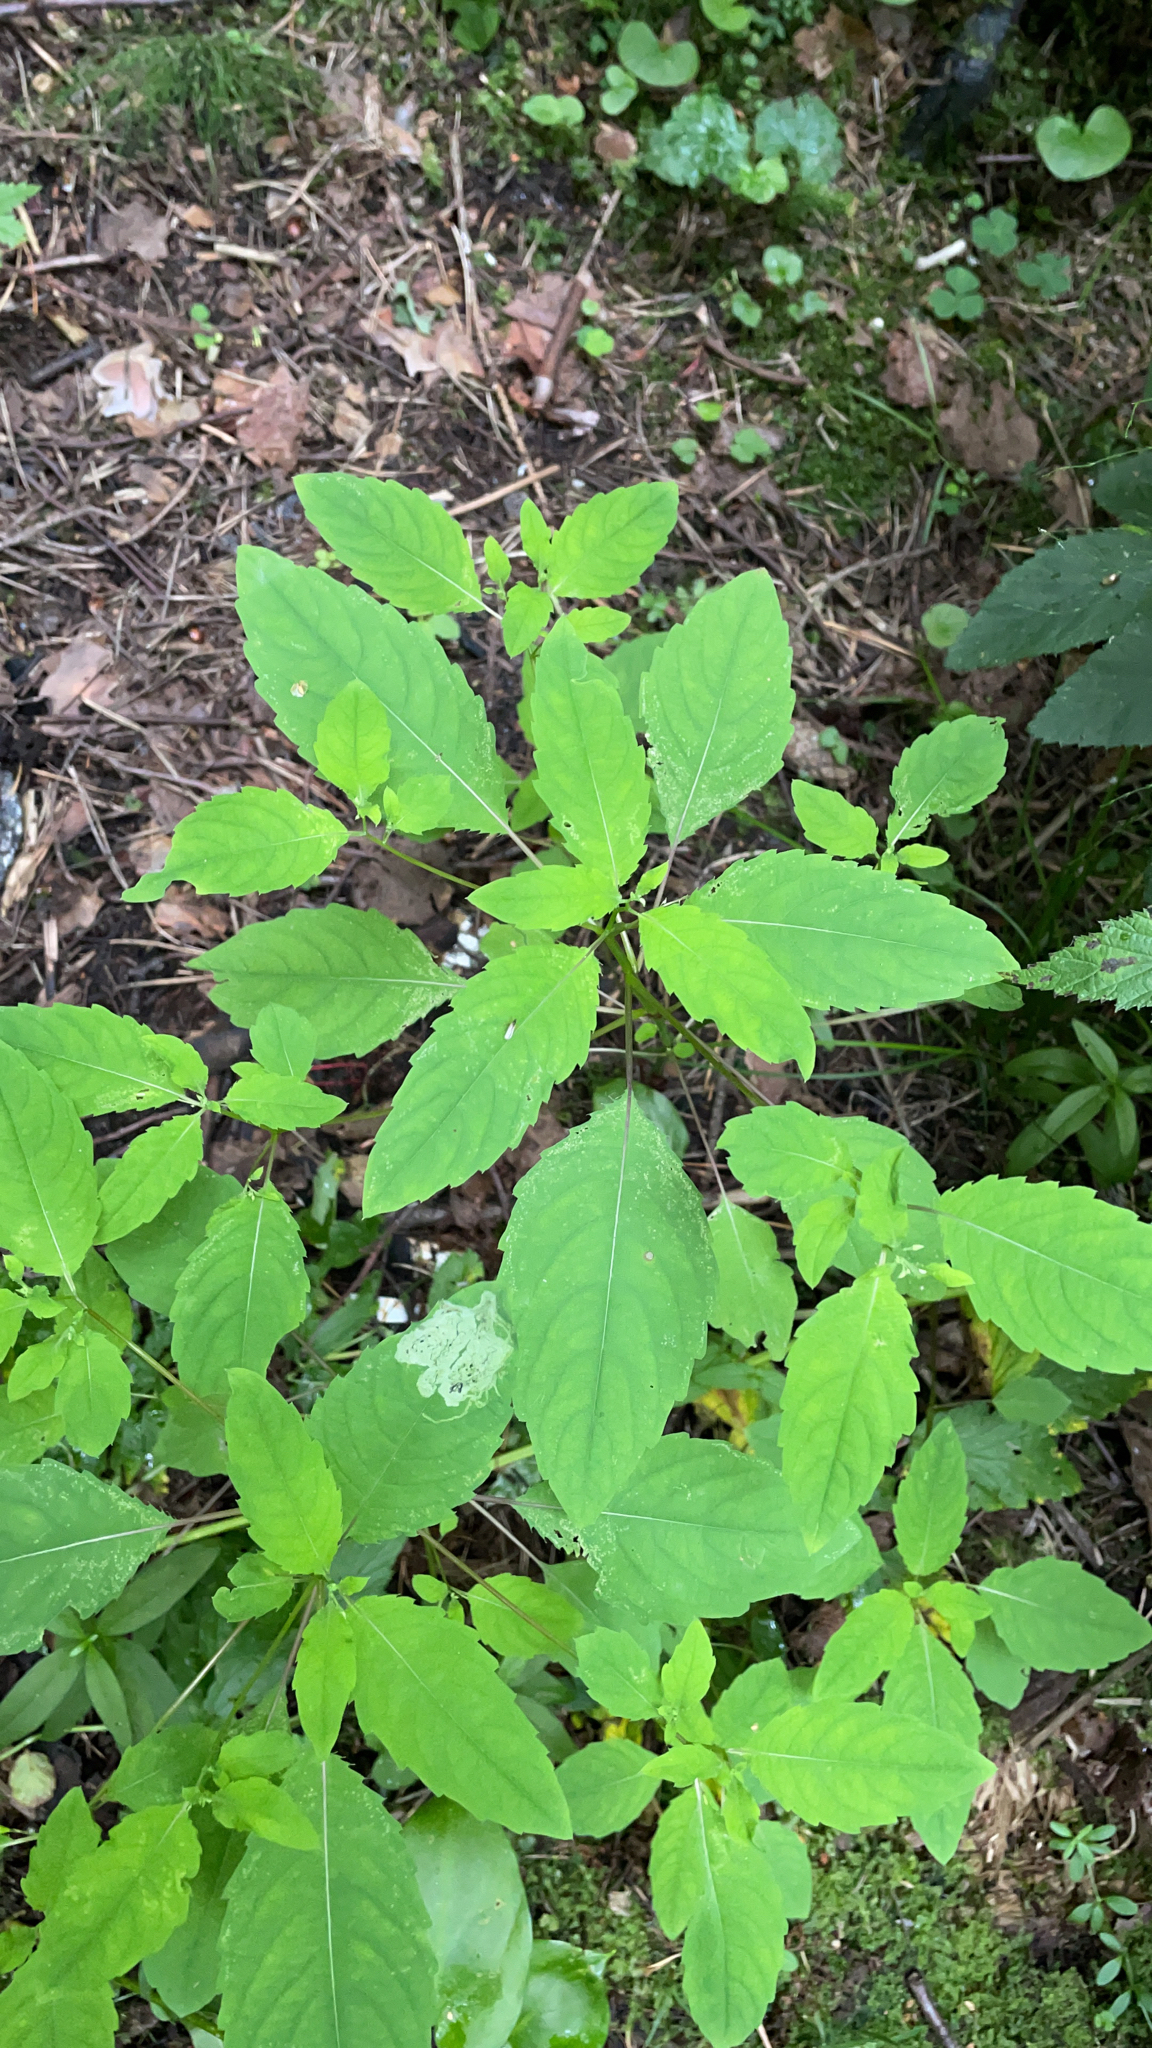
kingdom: Plantae
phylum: Tracheophyta
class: Magnoliopsida
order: Ericales
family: Balsaminaceae
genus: Impatiens
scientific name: Impatiens noli-tangere
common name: Touch-me-not balsam
